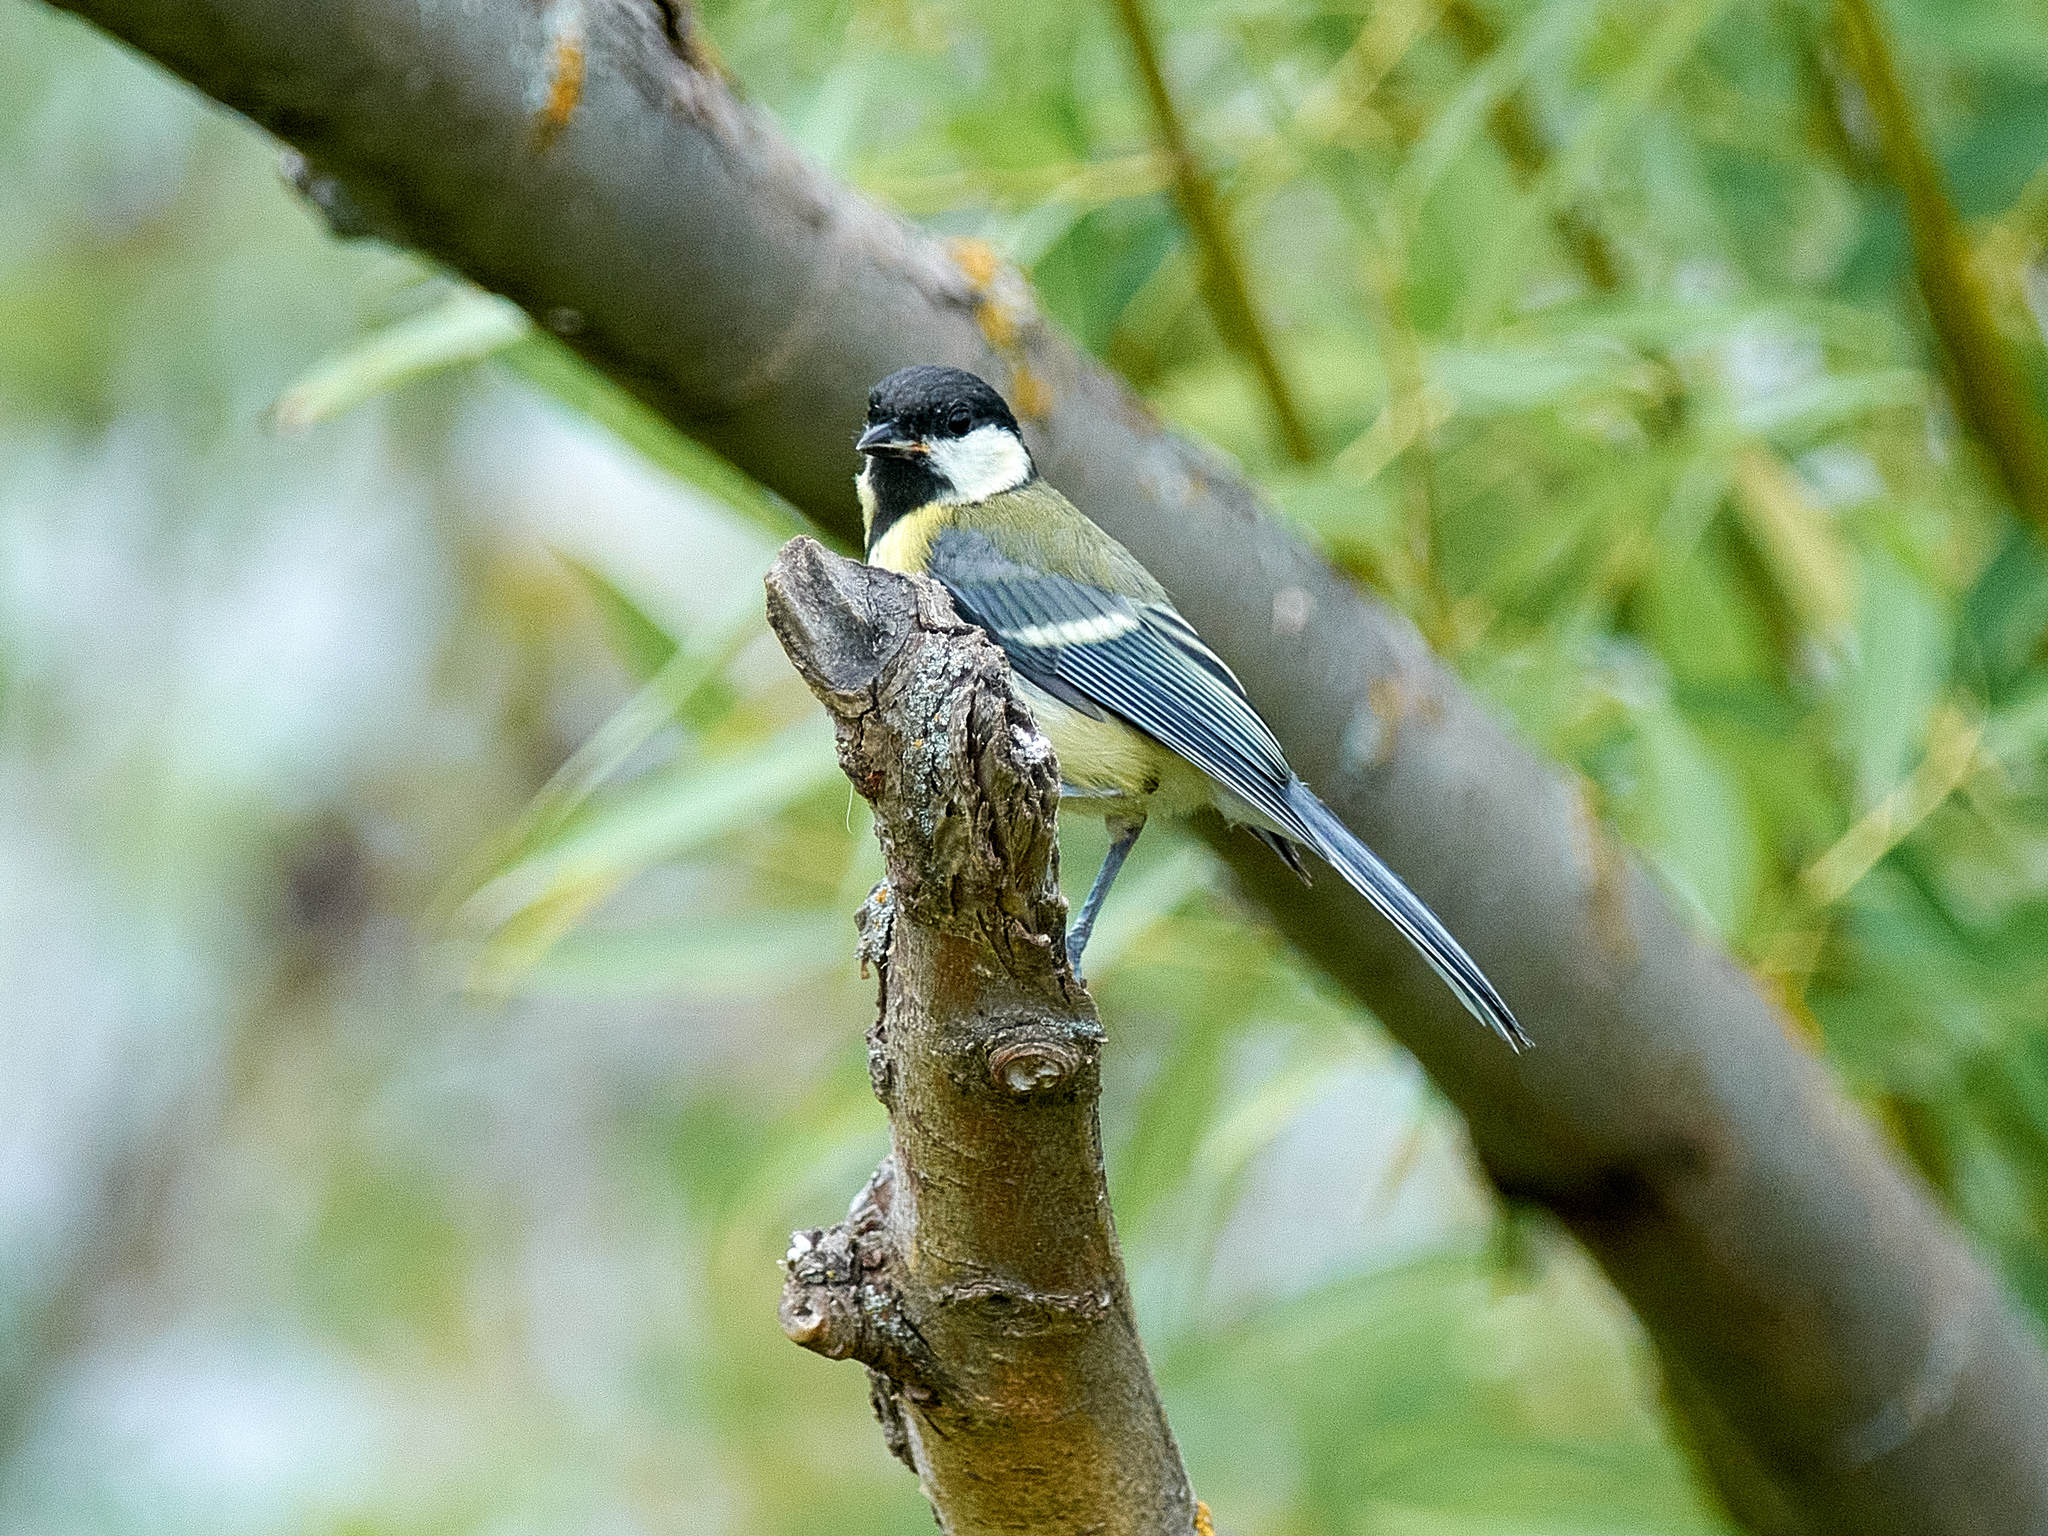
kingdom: Animalia
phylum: Chordata
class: Aves
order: Passeriformes
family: Paridae
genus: Parus
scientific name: Parus major
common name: Great tit
